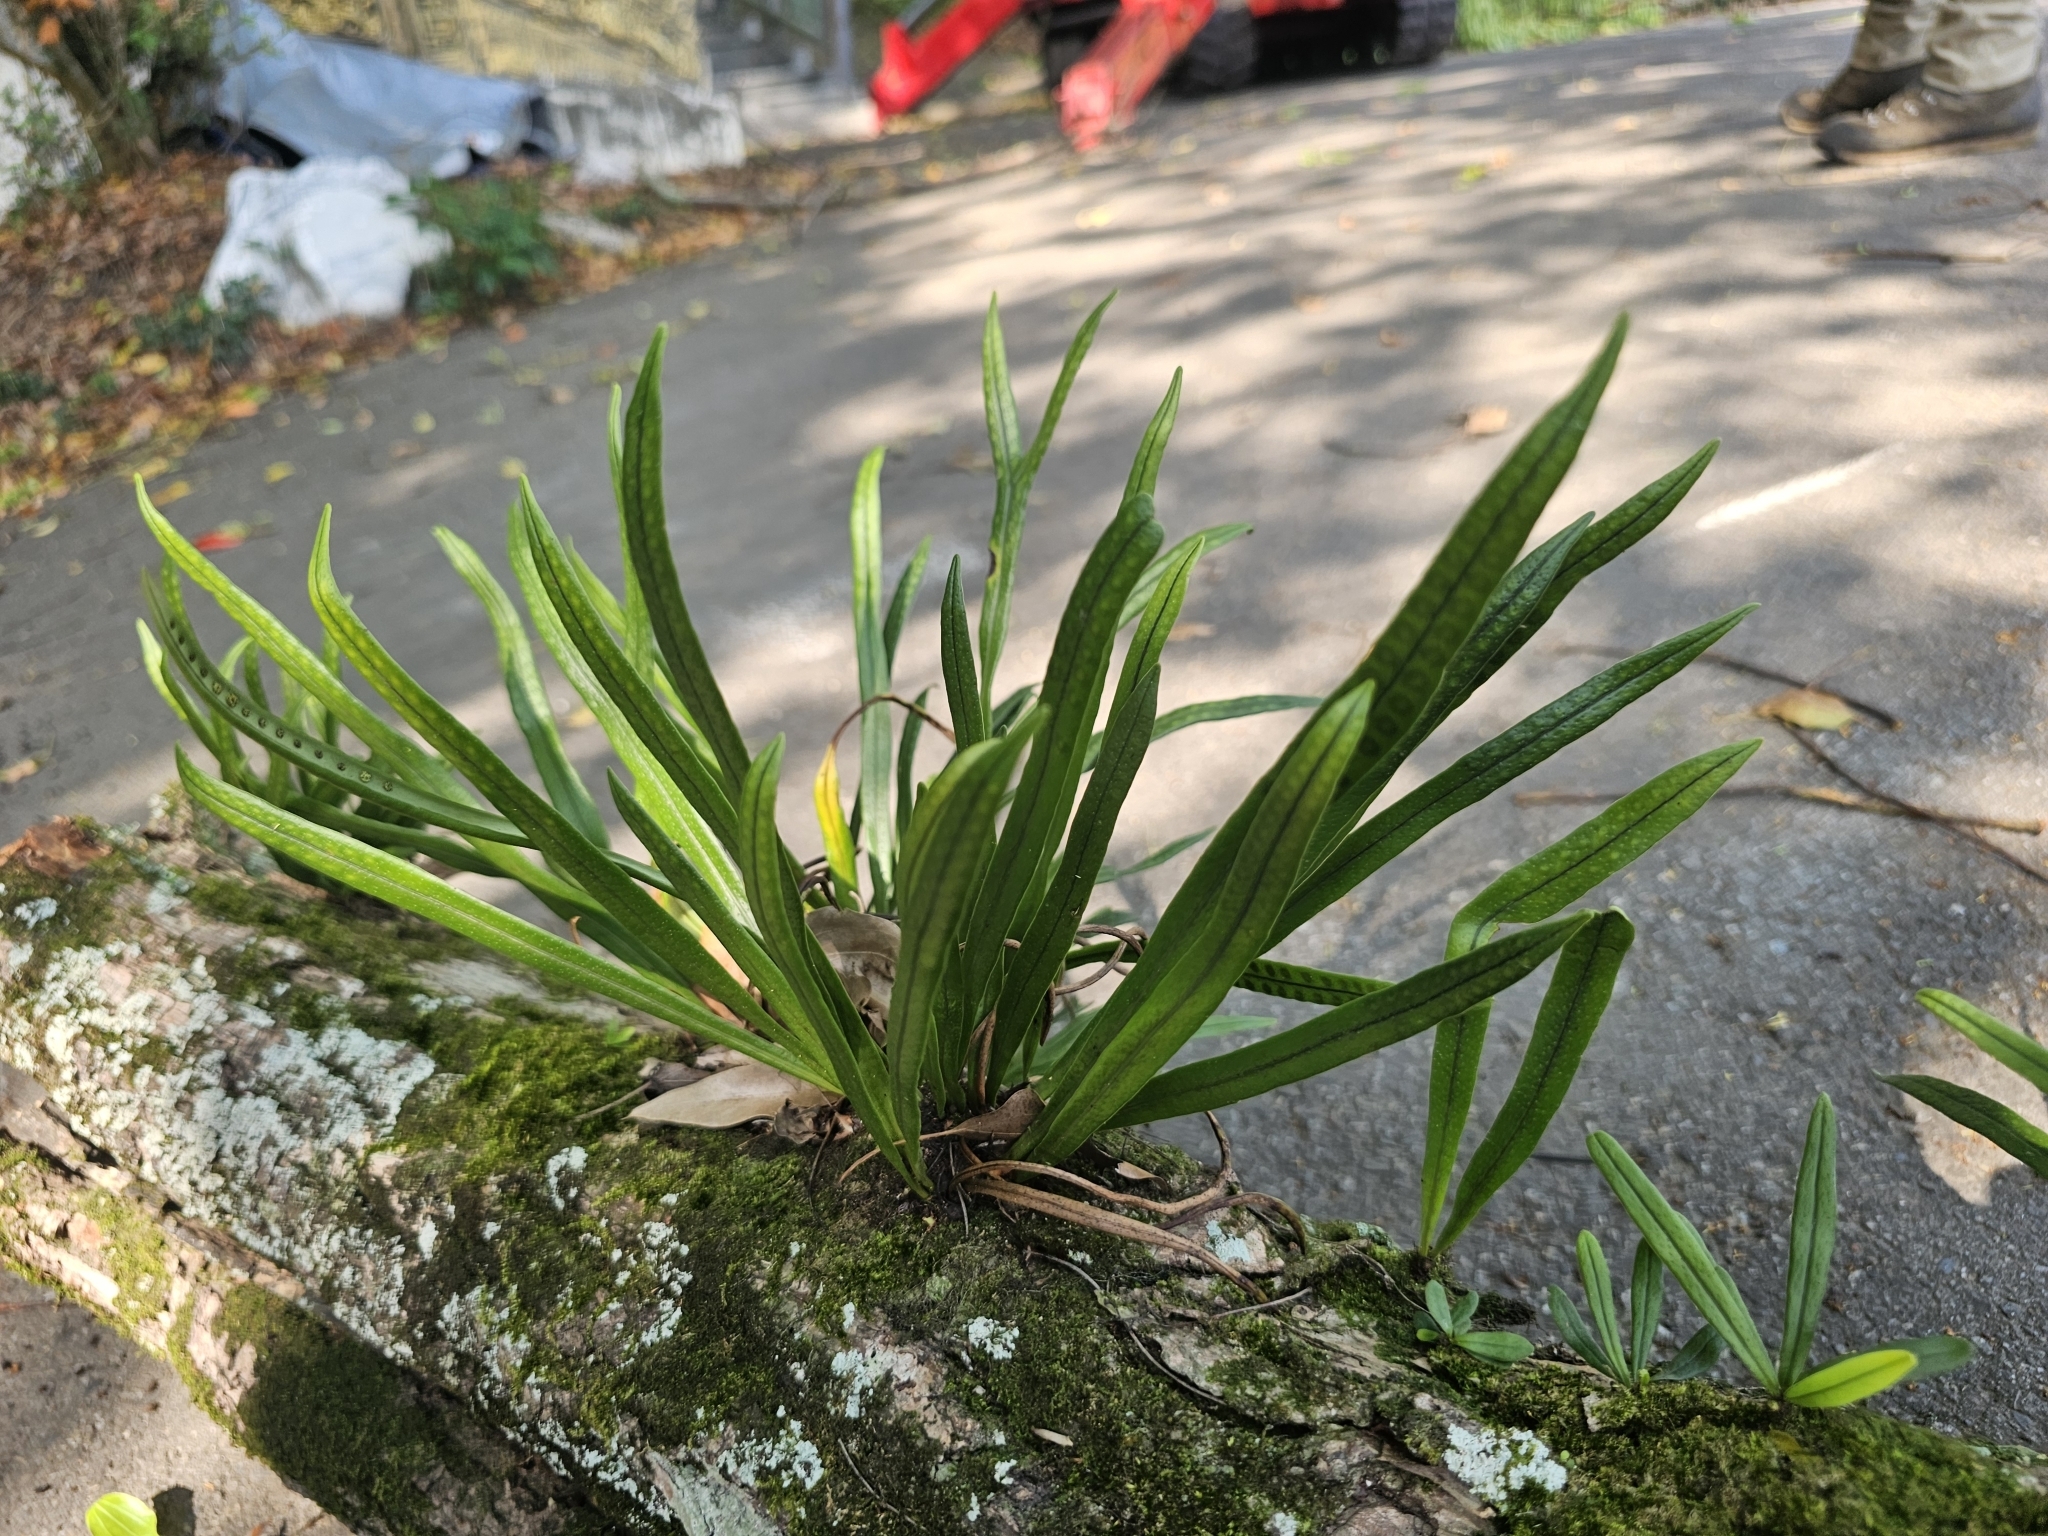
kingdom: Plantae
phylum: Tracheophyta
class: Polypodiopsida
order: Polypodiales
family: Polypodiaceae
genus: Lepisorus
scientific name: Lepisorus thunbergianus
